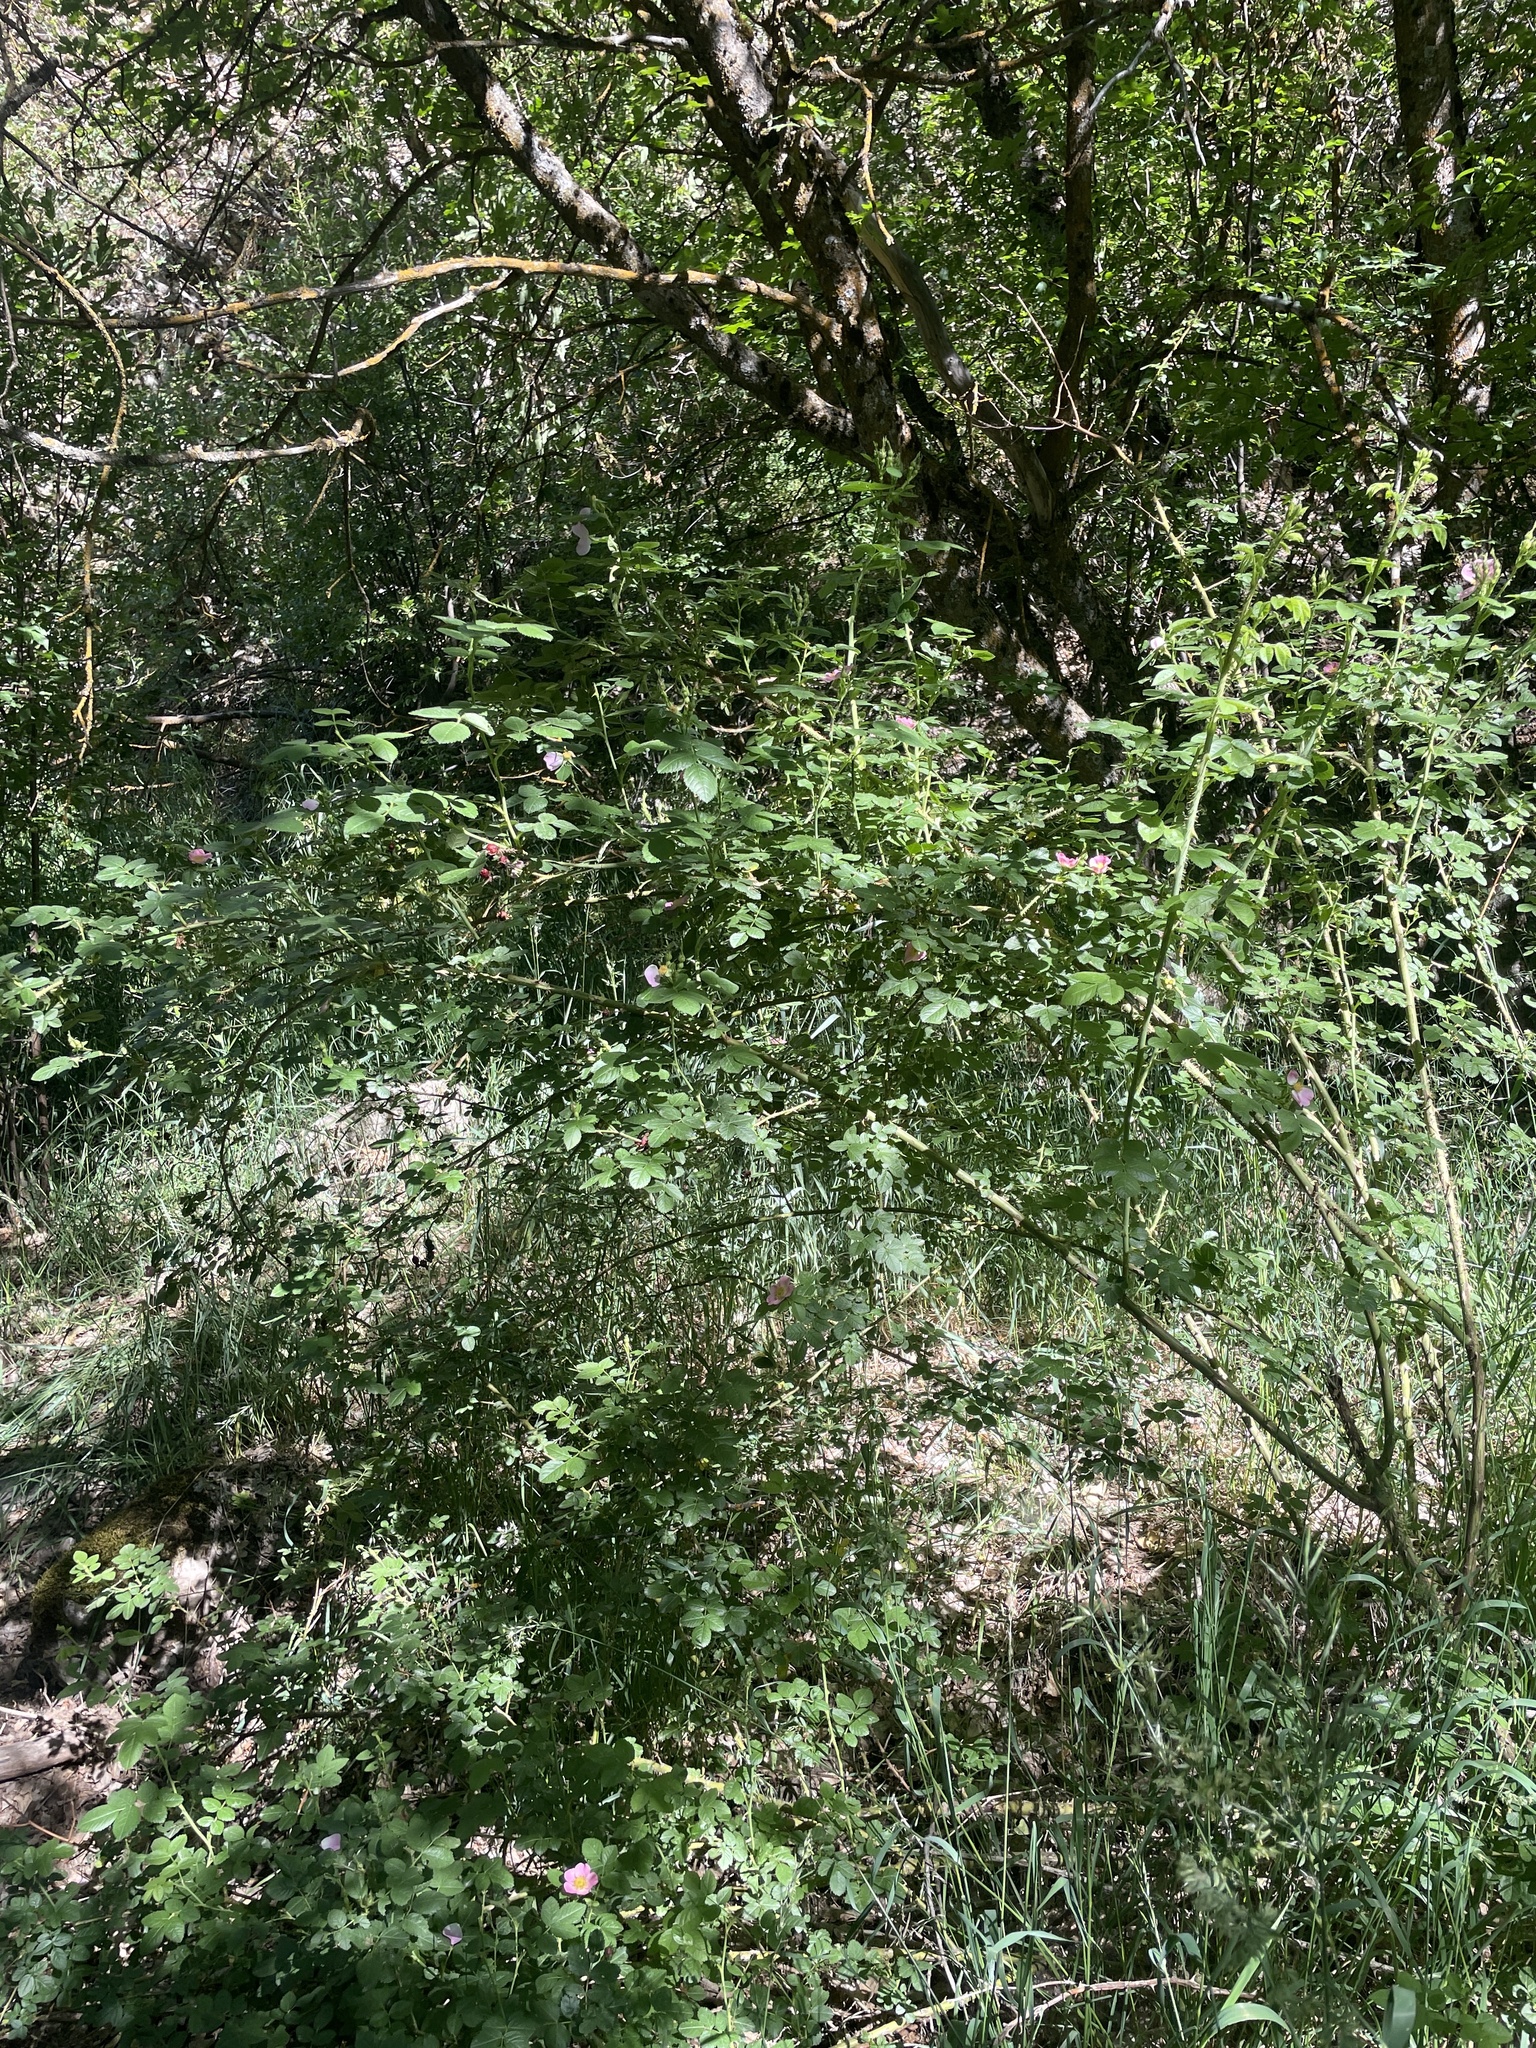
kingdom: Plantae
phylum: Tracheophyta
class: Magnoliopsida
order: Rosales
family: Rosaceae
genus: Rosa
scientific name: Rosa rubiginosa
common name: Sweet-briar
